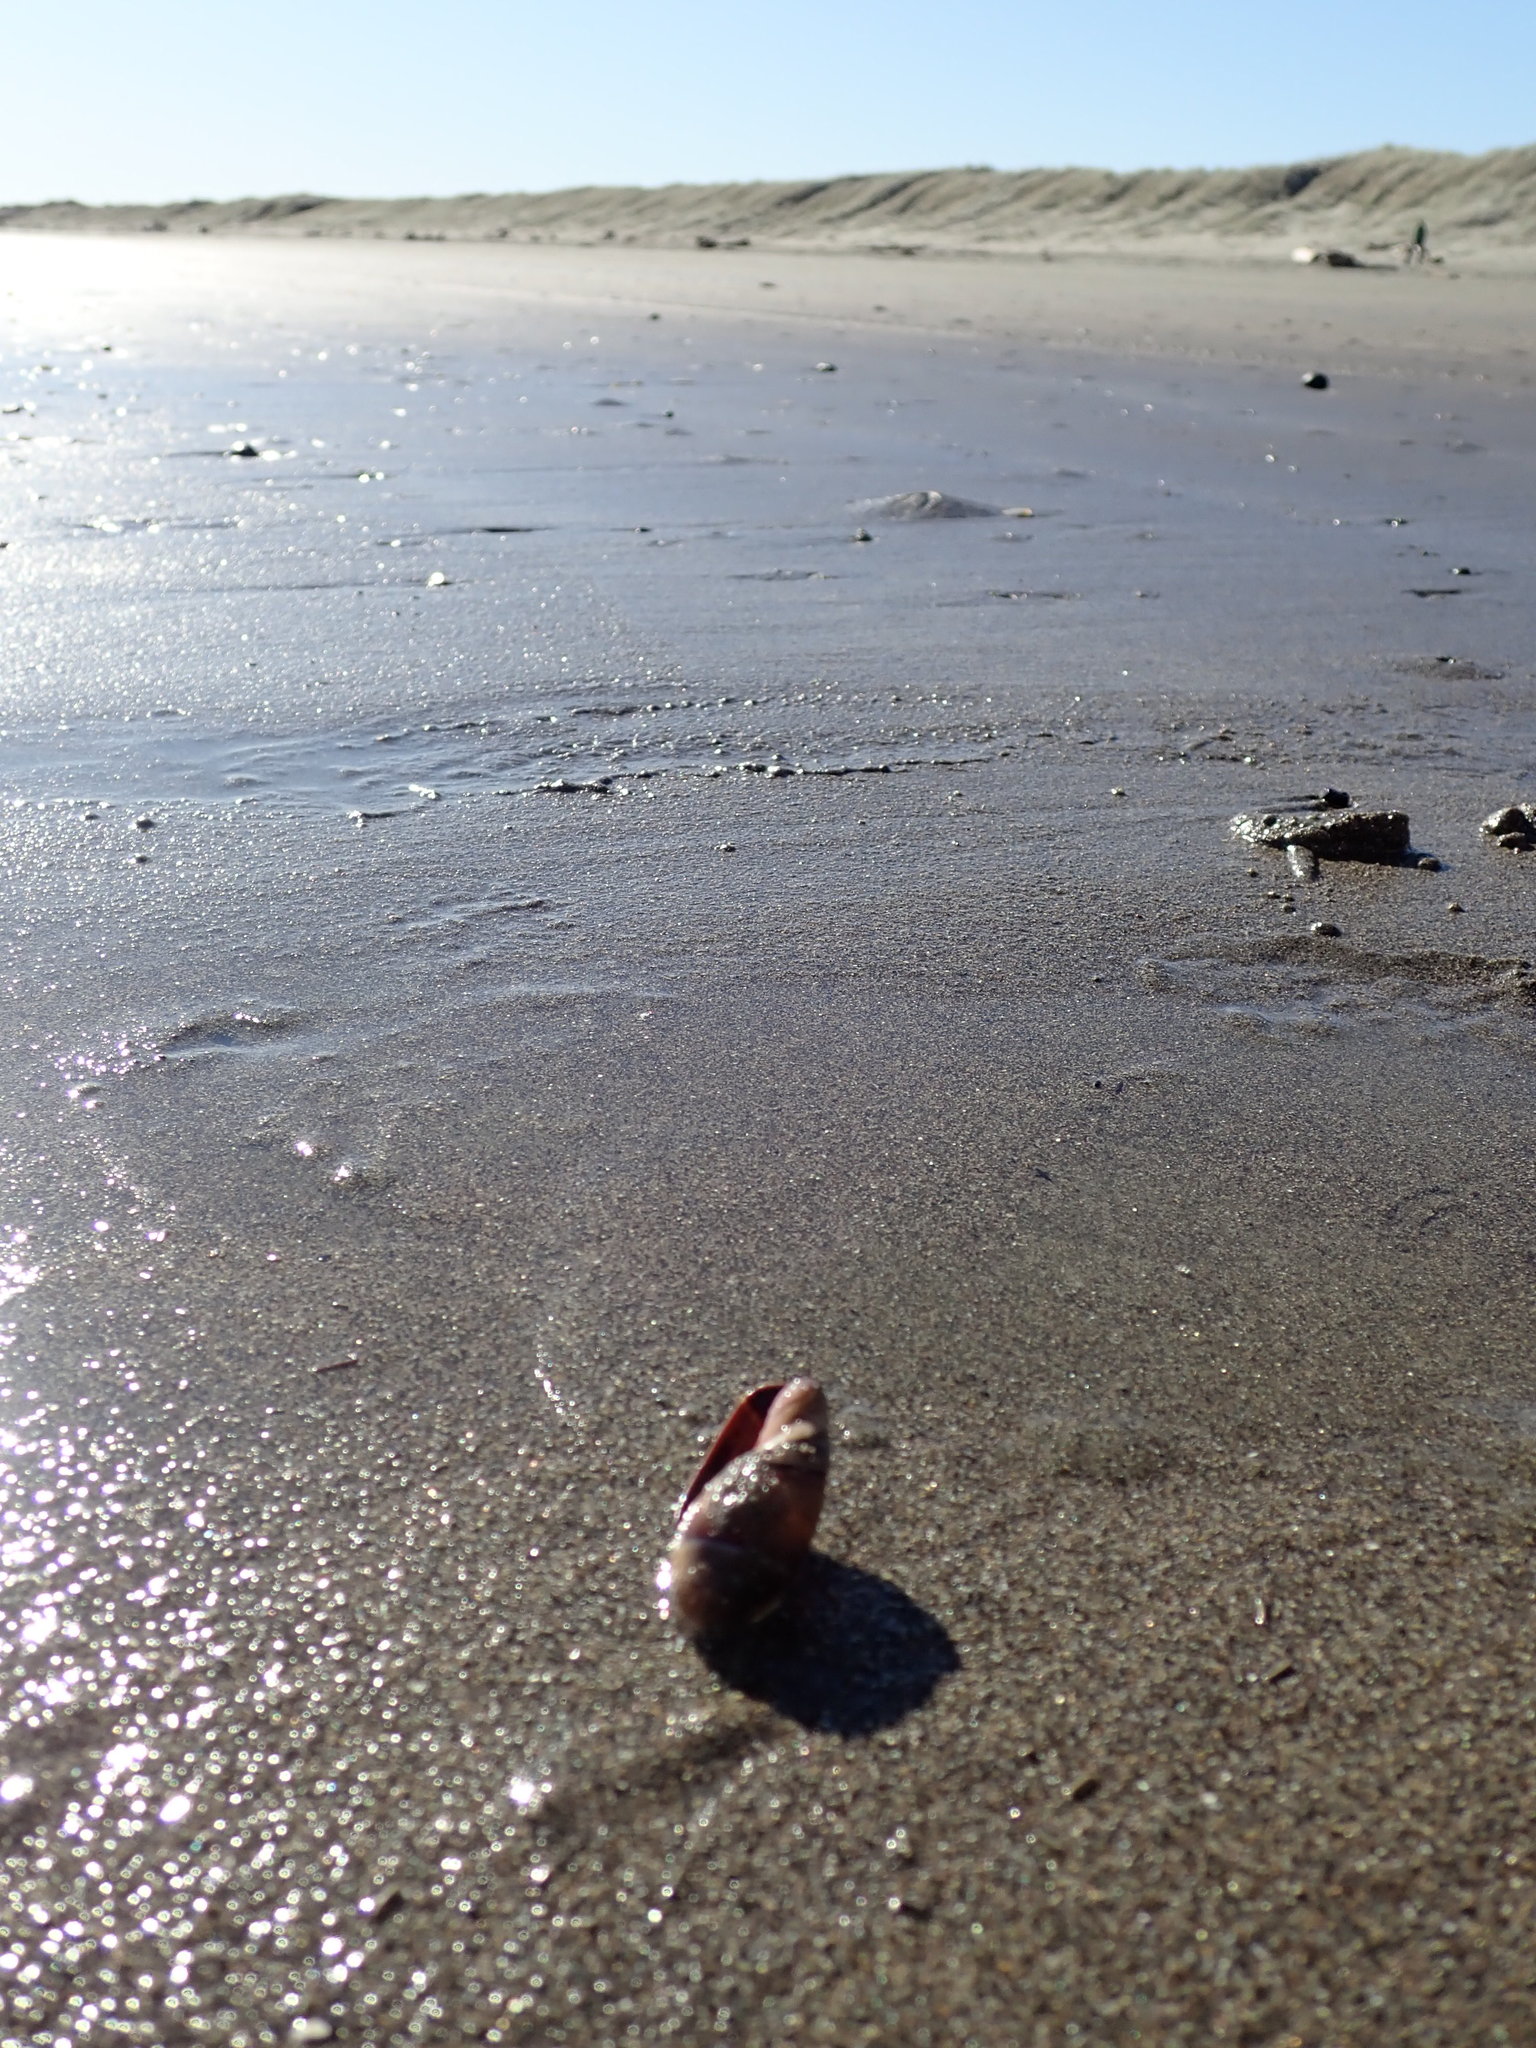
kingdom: Animalia
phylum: Mollusca
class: Gastropoda
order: Neogastropoda
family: Ancillariidae
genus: Amalda
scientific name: Amalda australis
